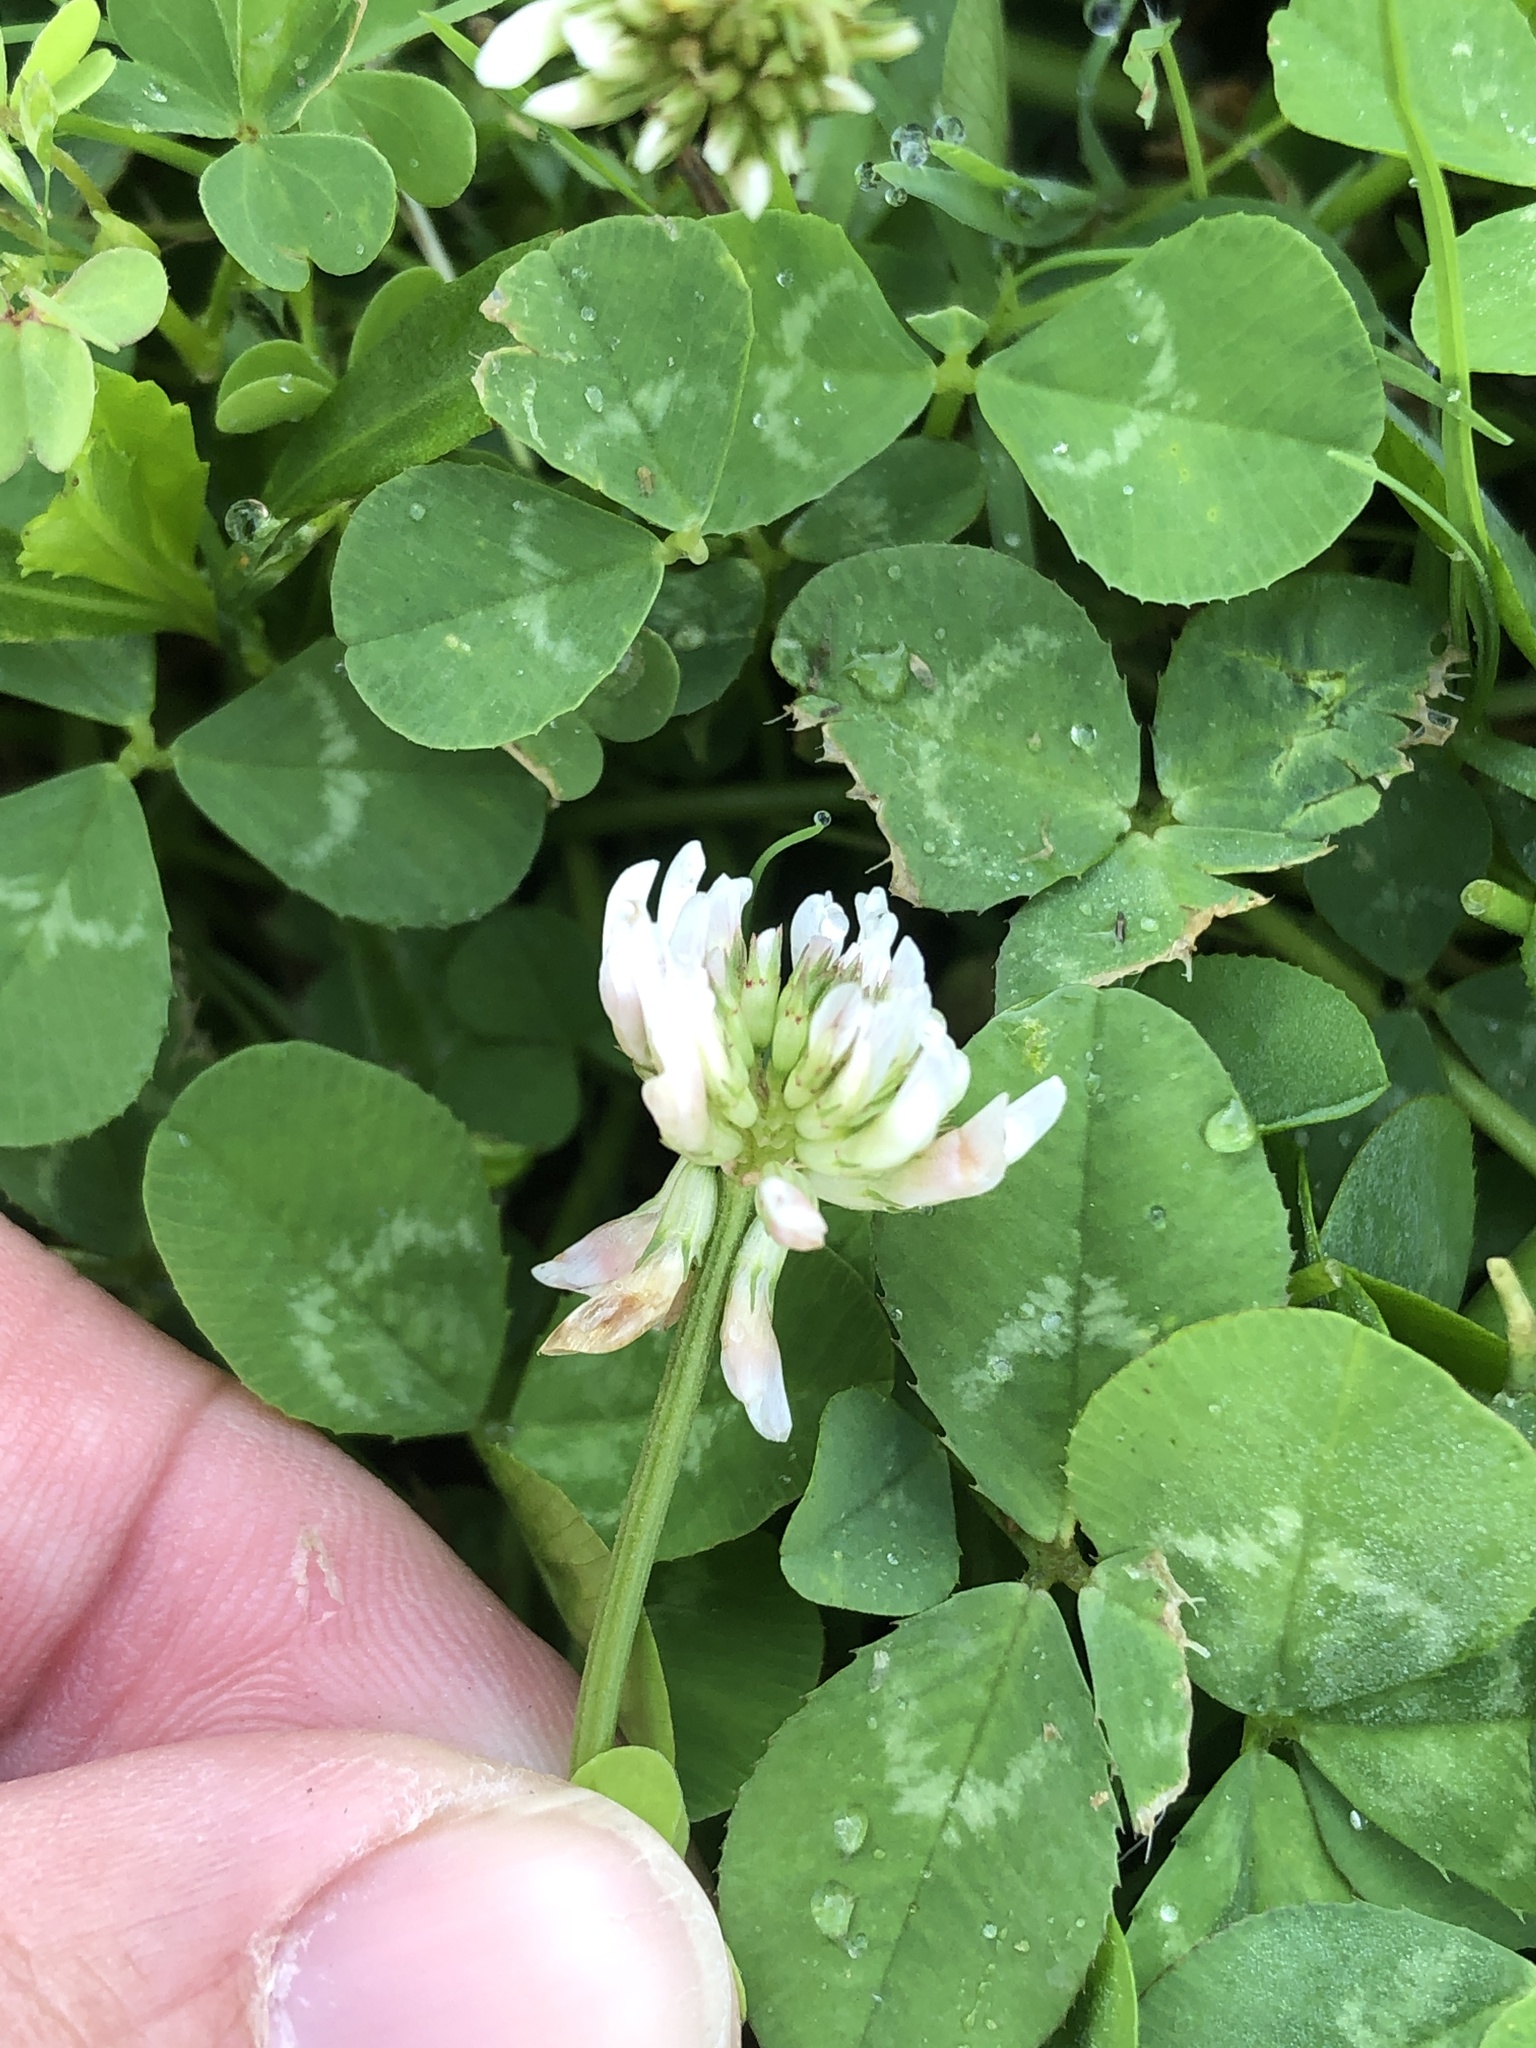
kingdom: Plantae
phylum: Tracheophyta
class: Magnoliopsida
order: Fabales
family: Fabaceae
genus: Trifolium
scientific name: Trifolium repens
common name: White clover
